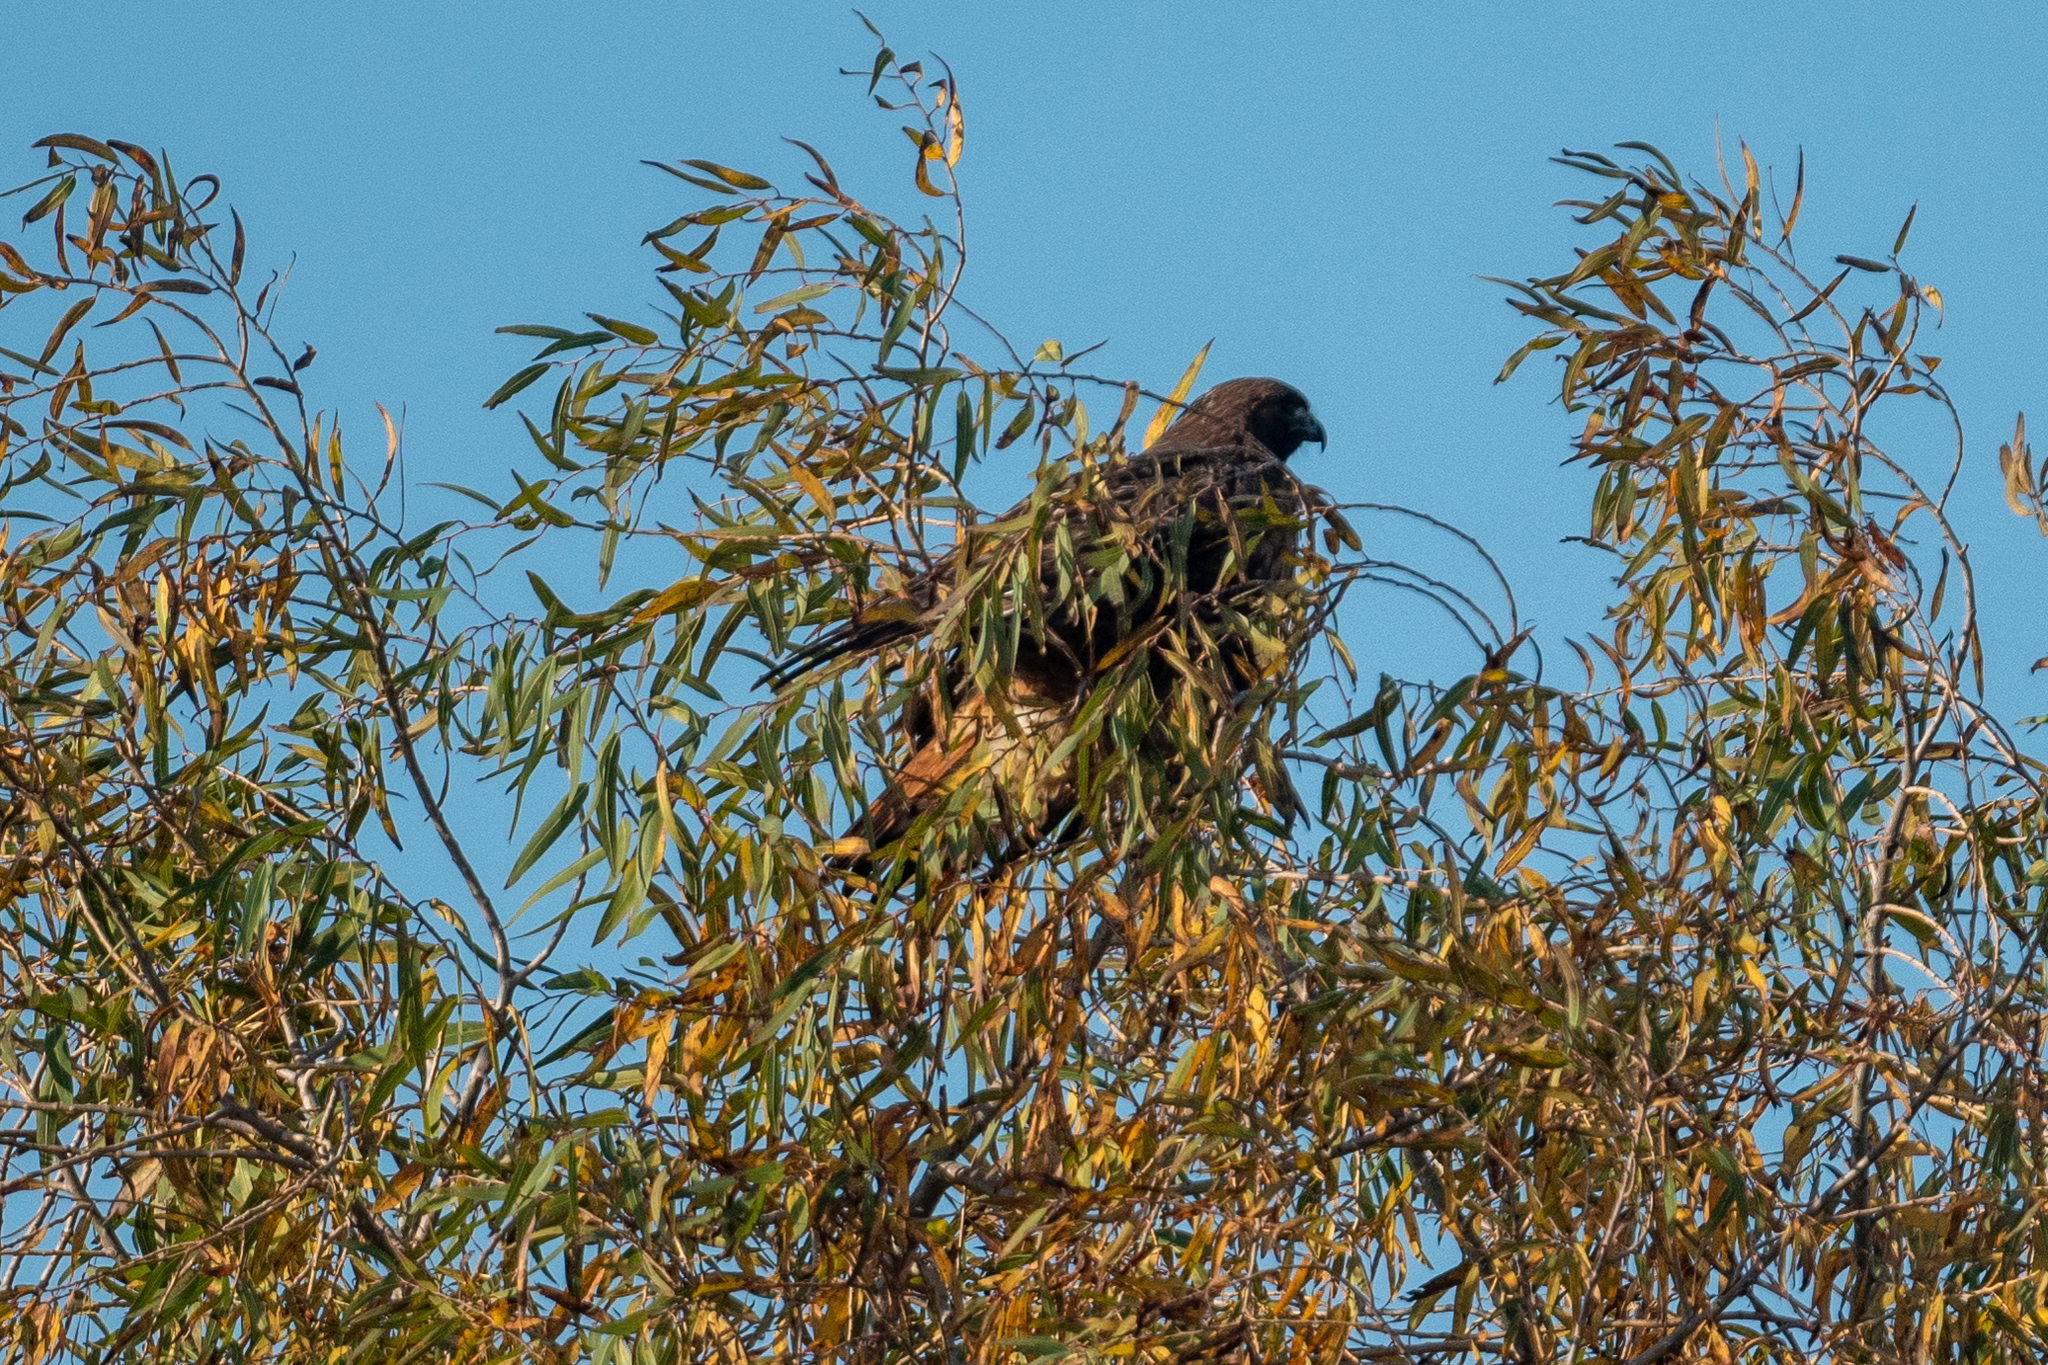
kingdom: Animalia
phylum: Chordata
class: Aves
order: Accipitriformes
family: Accipitridae
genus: Buteo
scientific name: Buteo jamaicensis
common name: Red-tailed hawk
